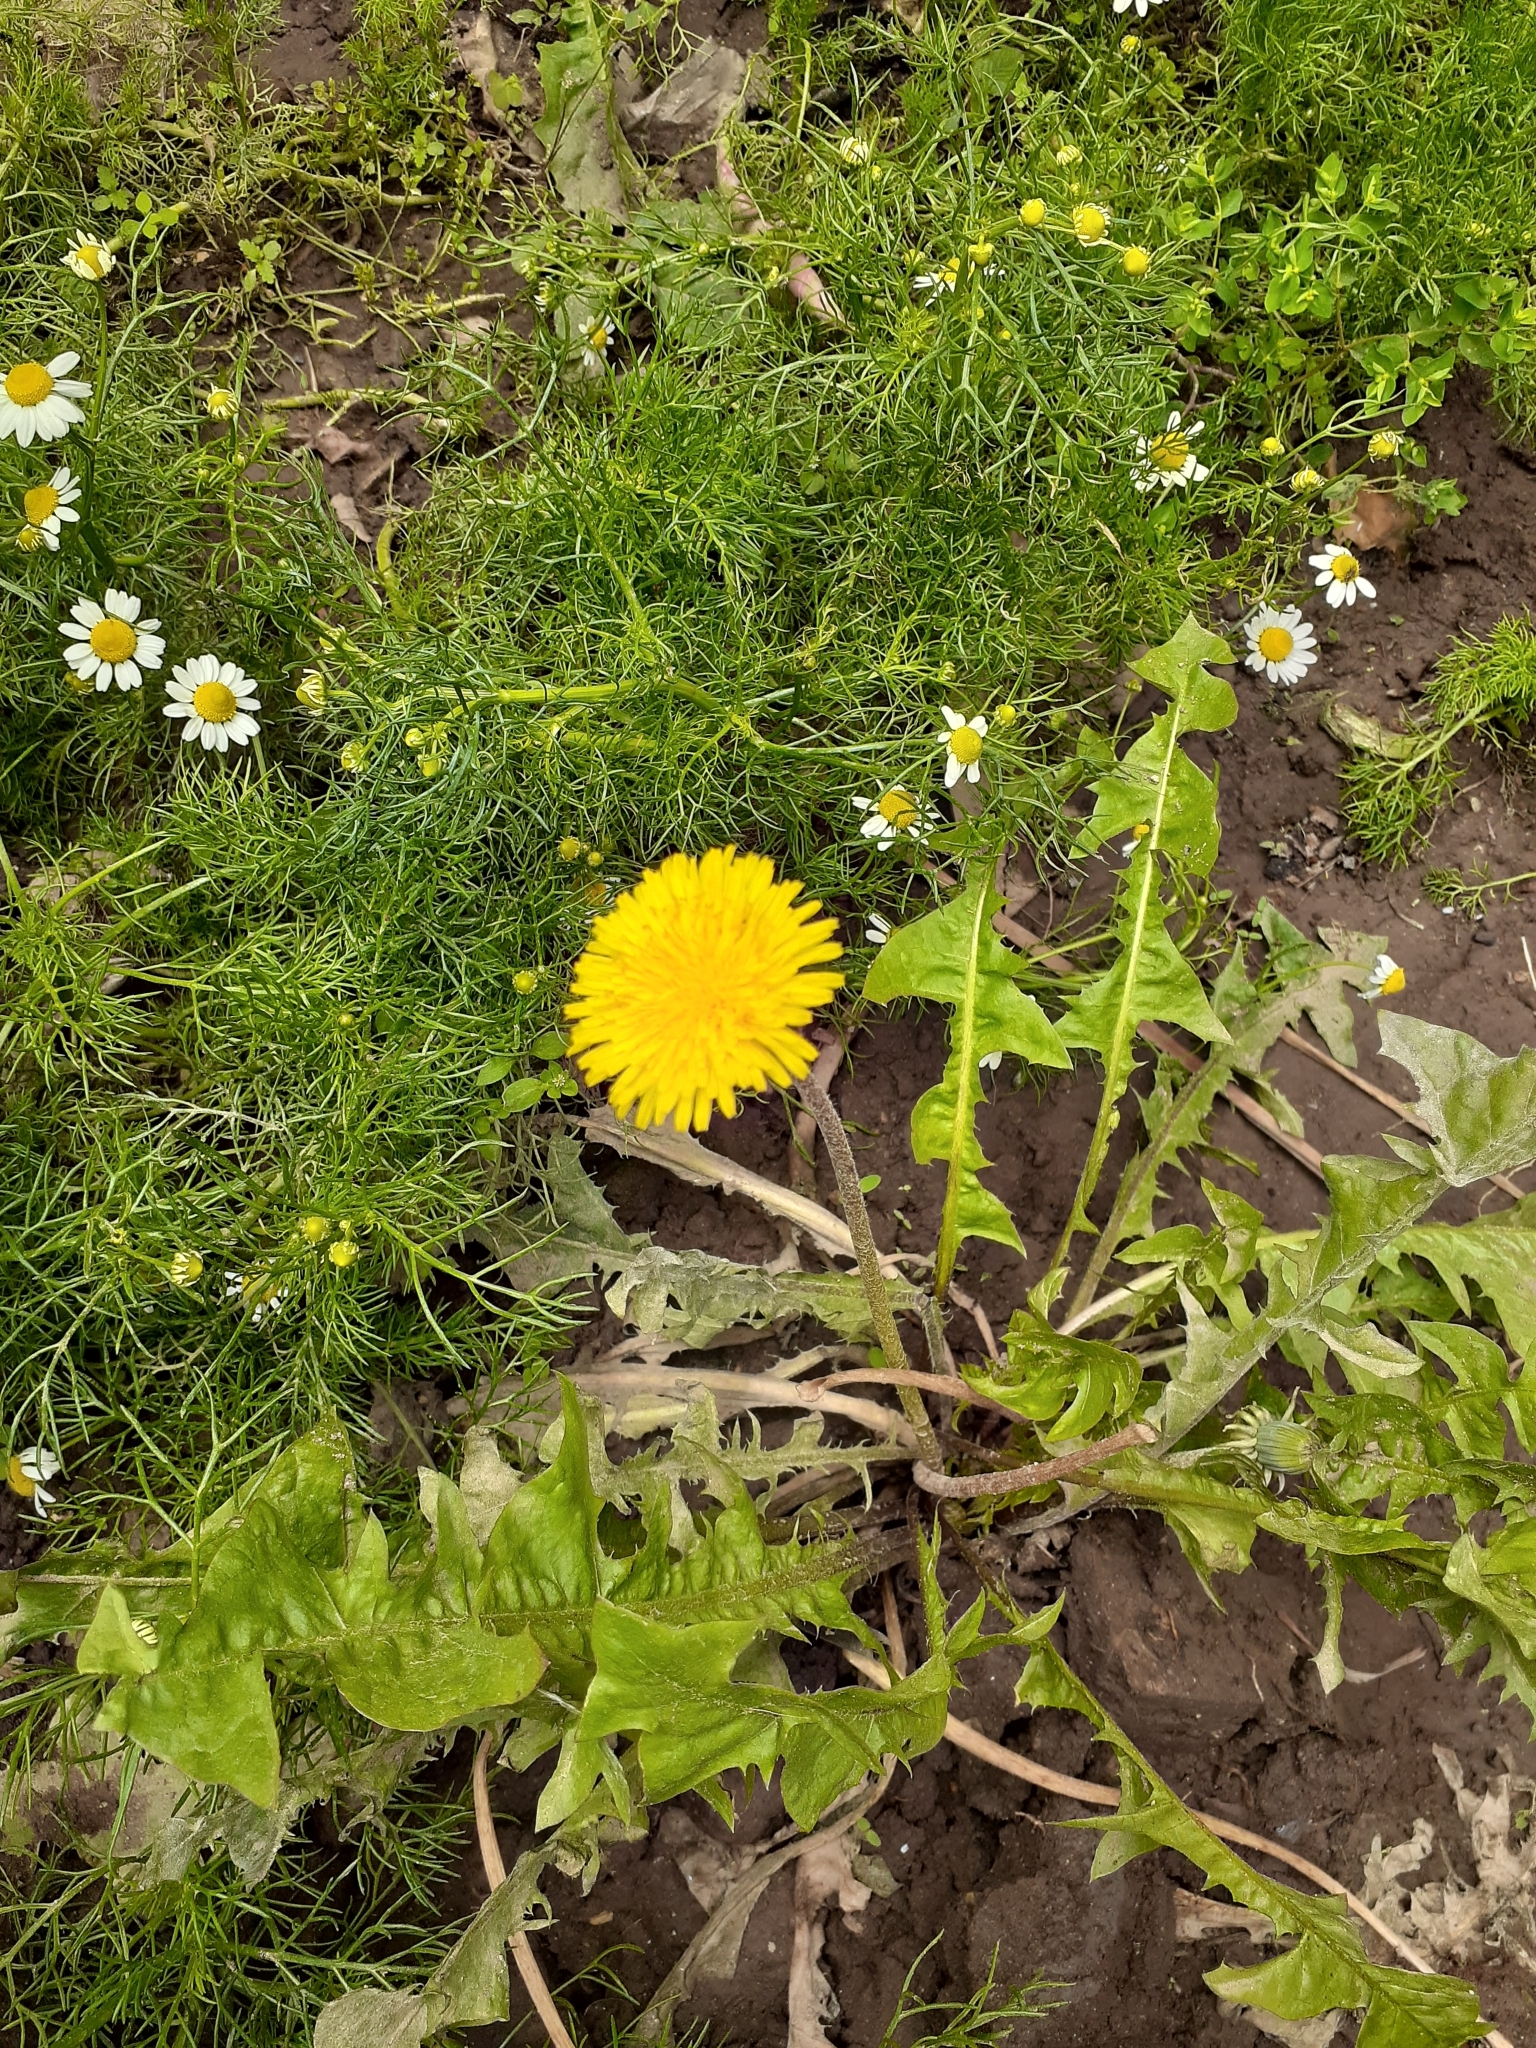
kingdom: Plantae
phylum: Tracheophyta
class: Magnoliopsida
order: Asterales
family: Asteraceae
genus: Taraxacum
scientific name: Taraxacum officinale
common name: Common dandelion
